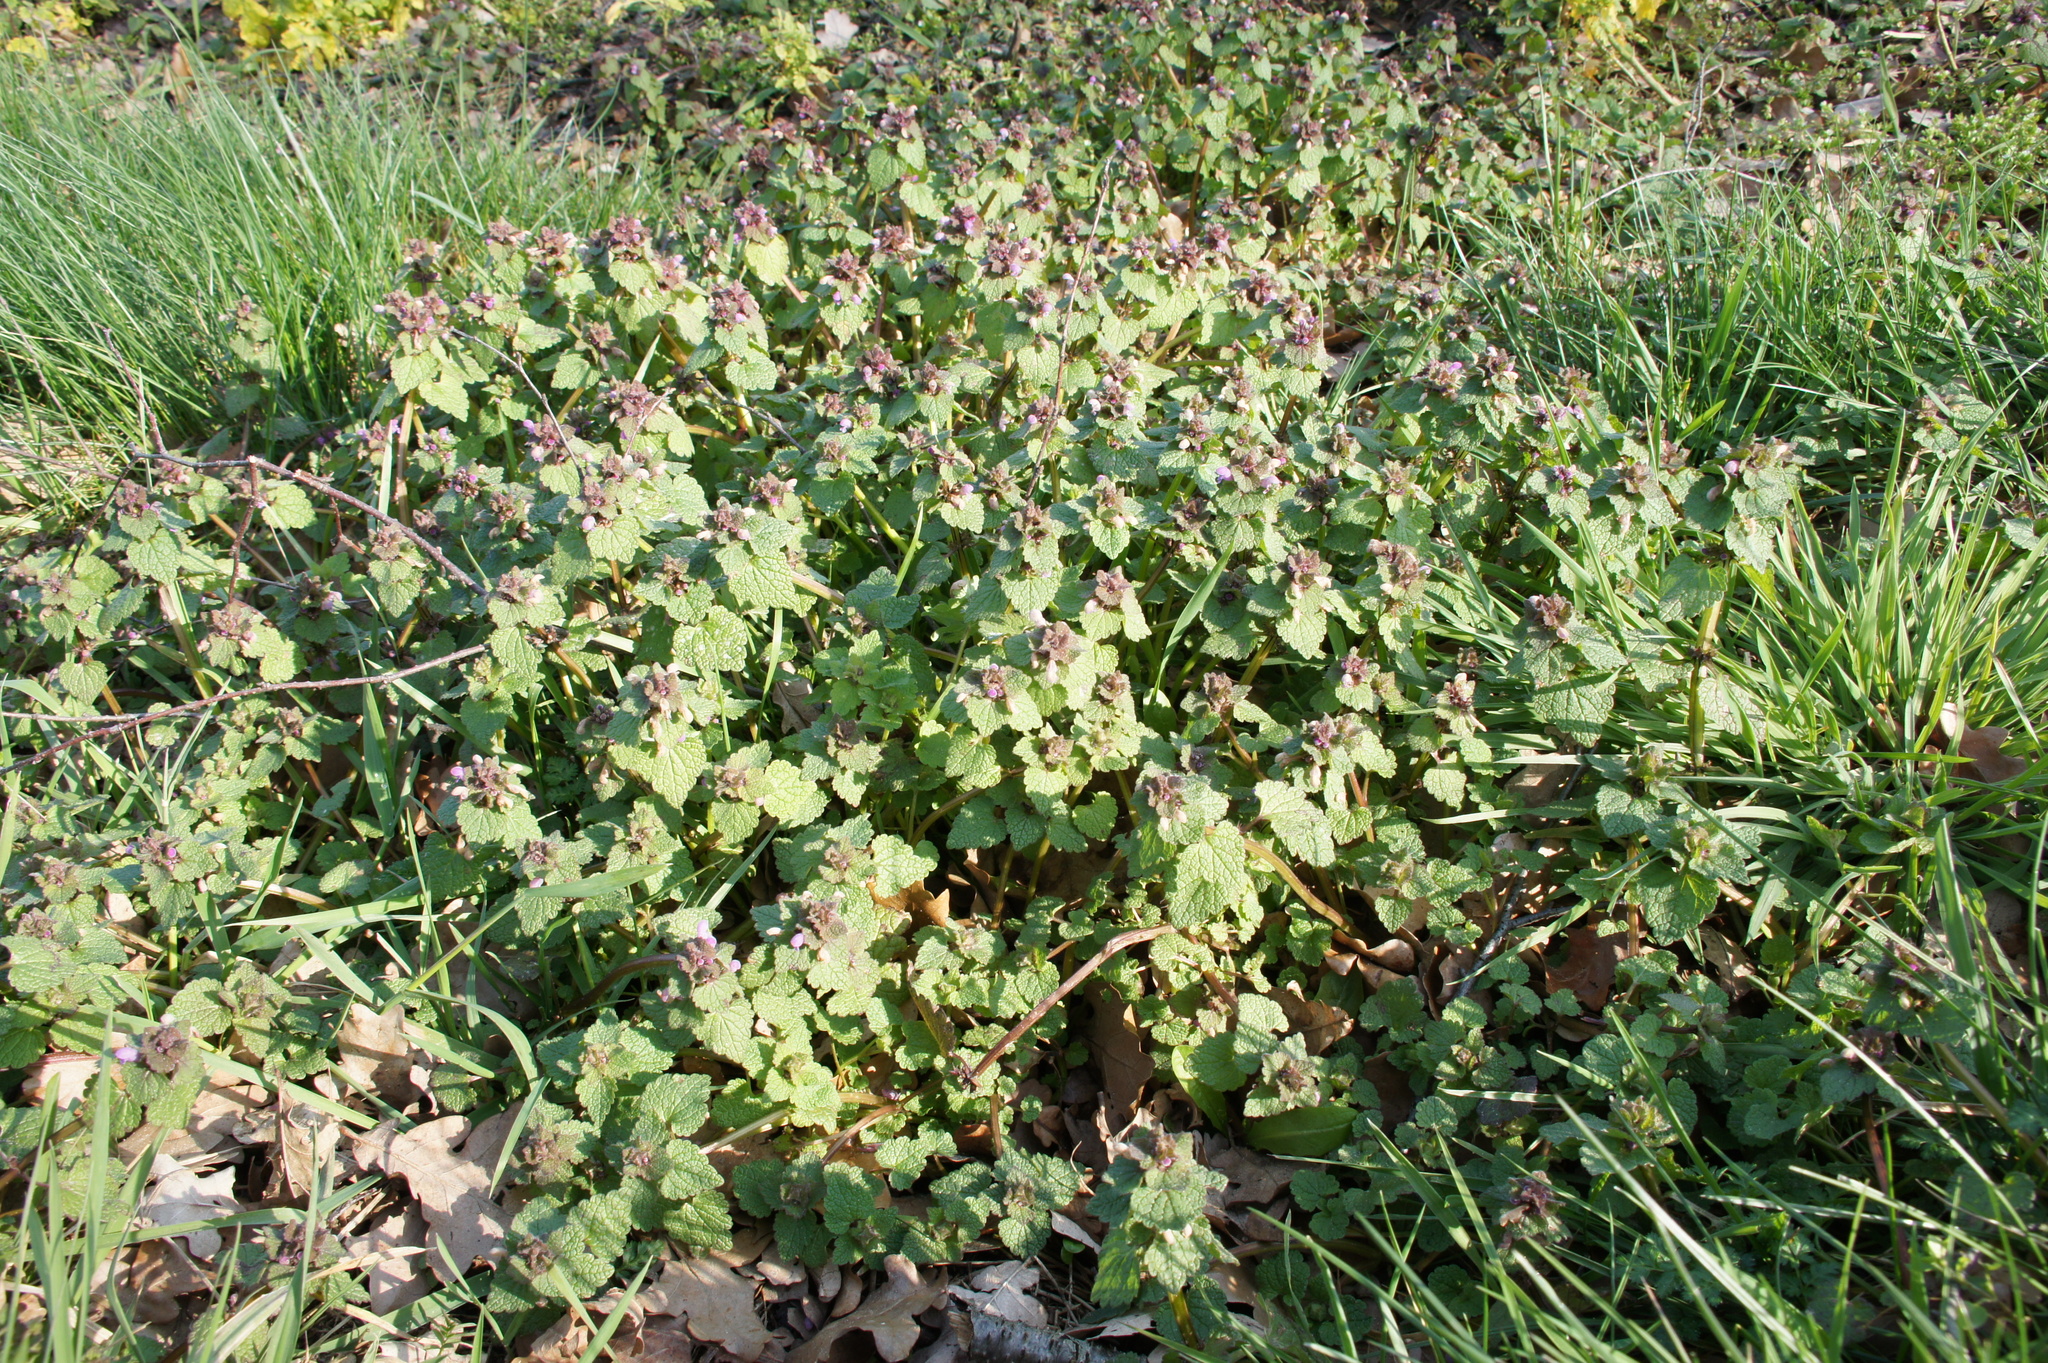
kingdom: Plantae
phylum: Tracheophyta
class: Magnoliopsida
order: Lamiales
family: Lamiaceae
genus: Lamium
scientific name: Lamium purpureum
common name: Red dead-nettle
